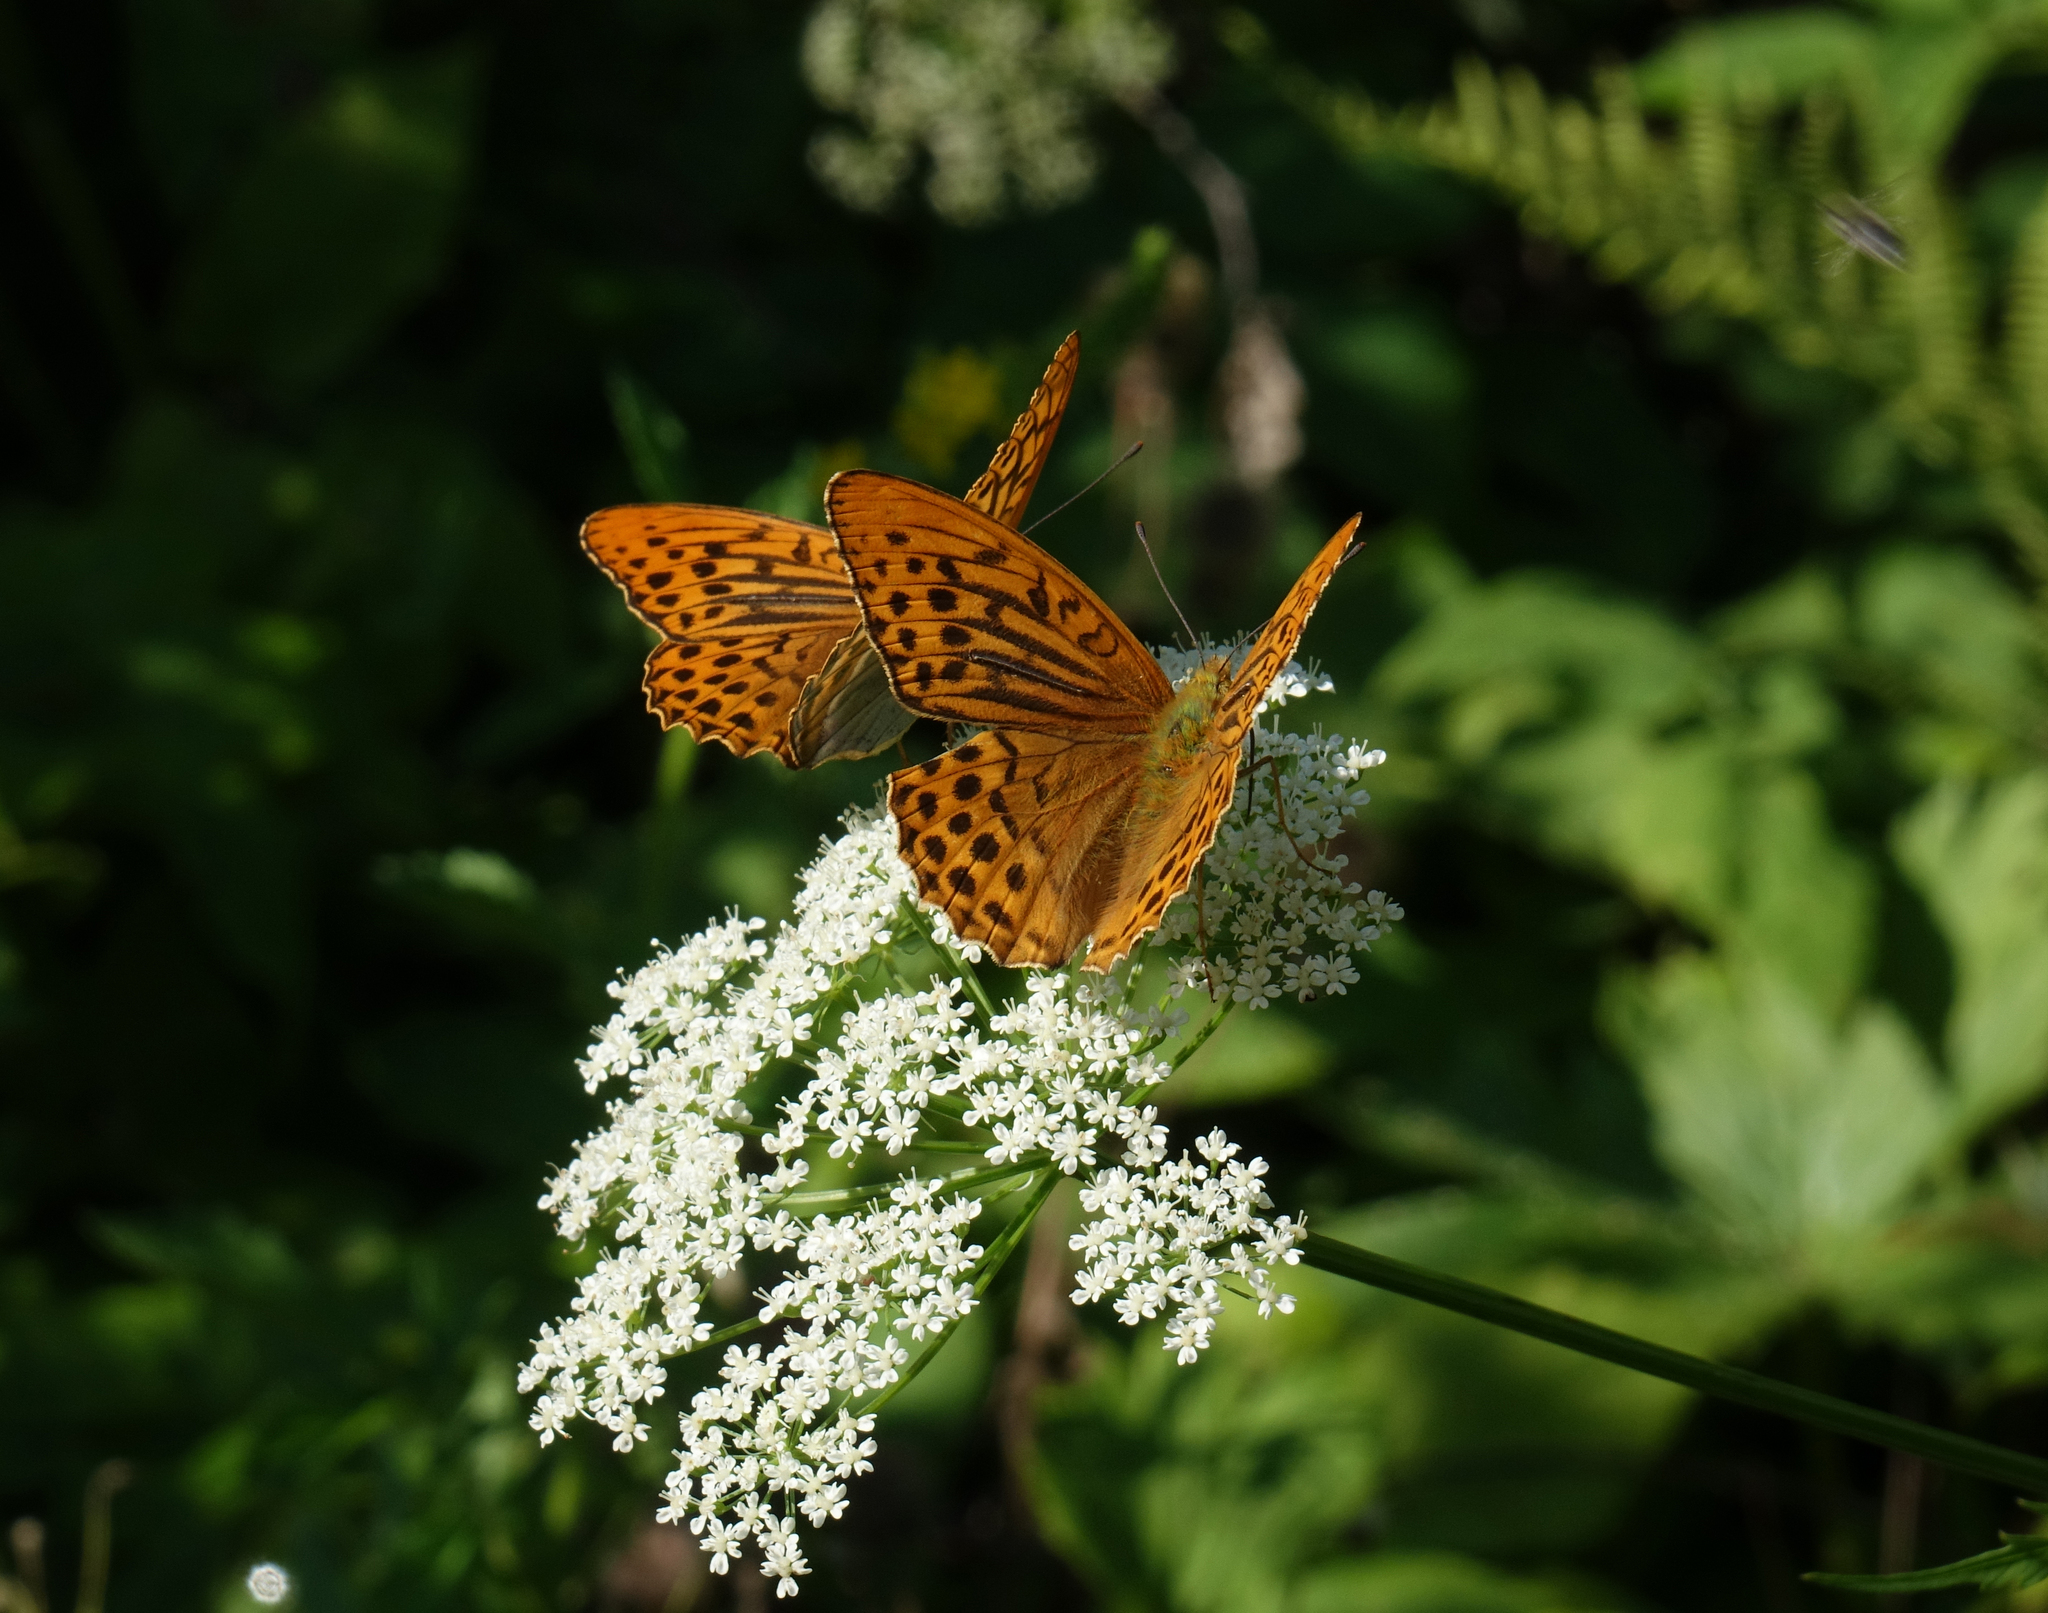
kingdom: Plantae
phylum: Tracheophyta
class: Magnoliopsida
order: Apiales
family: Apiaceae
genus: Aegopodium
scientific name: Aegopodium podagraria
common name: Ground-elder
